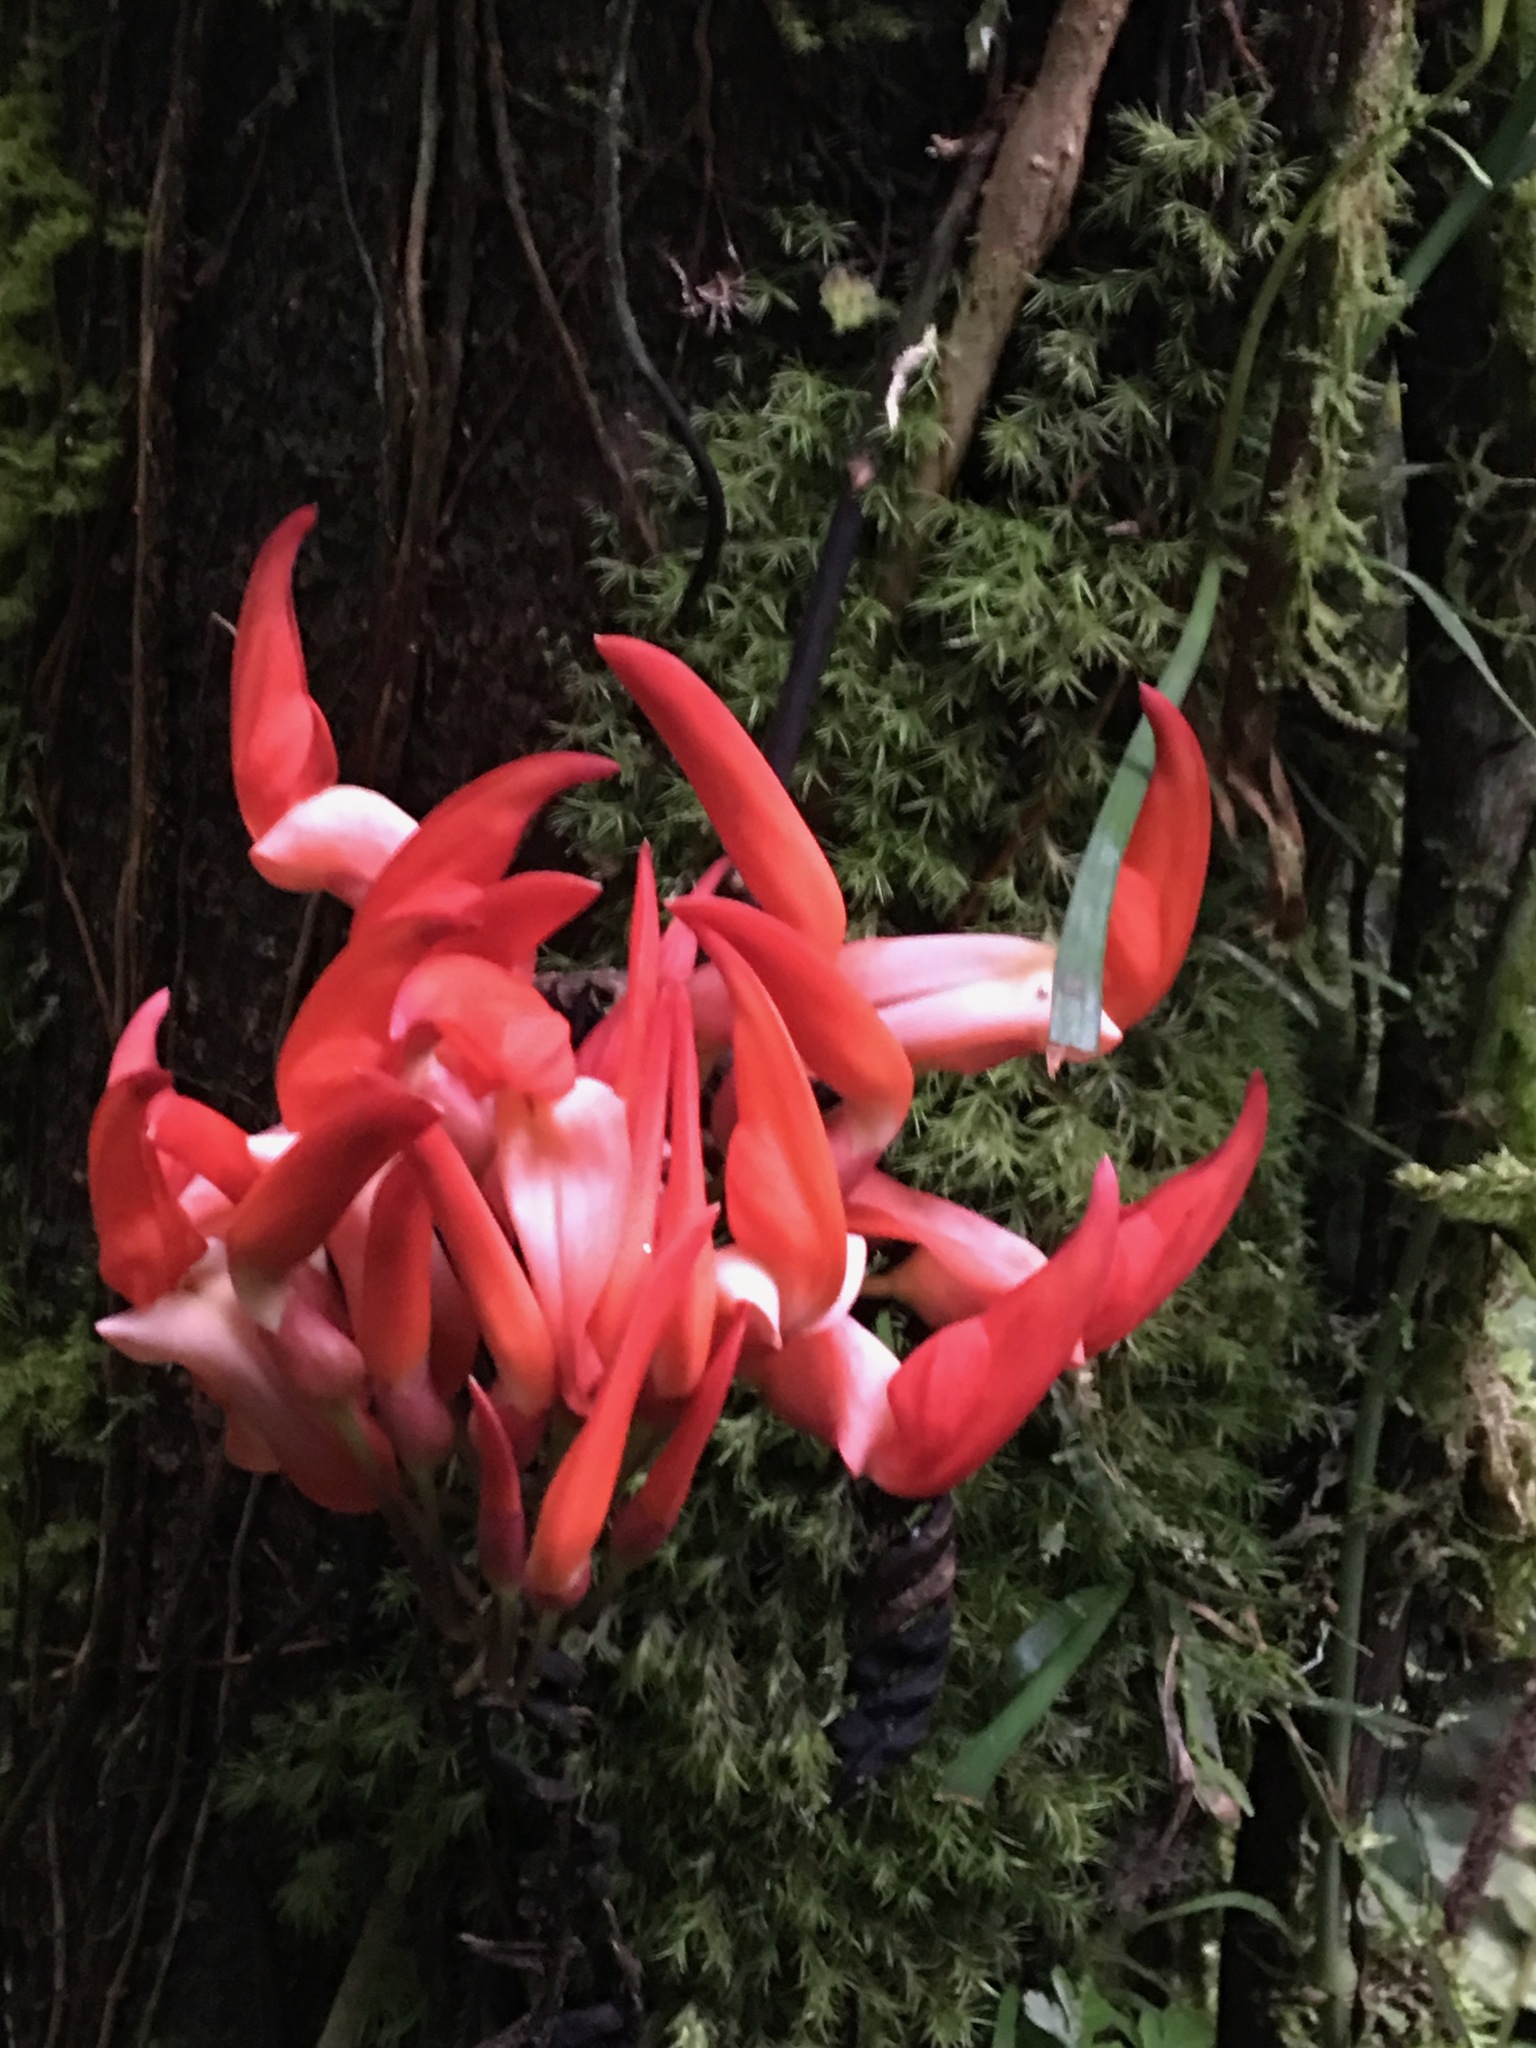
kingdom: Plantae
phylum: Tracheophyta
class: Magnoliopsida
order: Fabales
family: Fabaceae
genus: Mucuna
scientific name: Mucuna bennettii
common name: New guinea creeper
